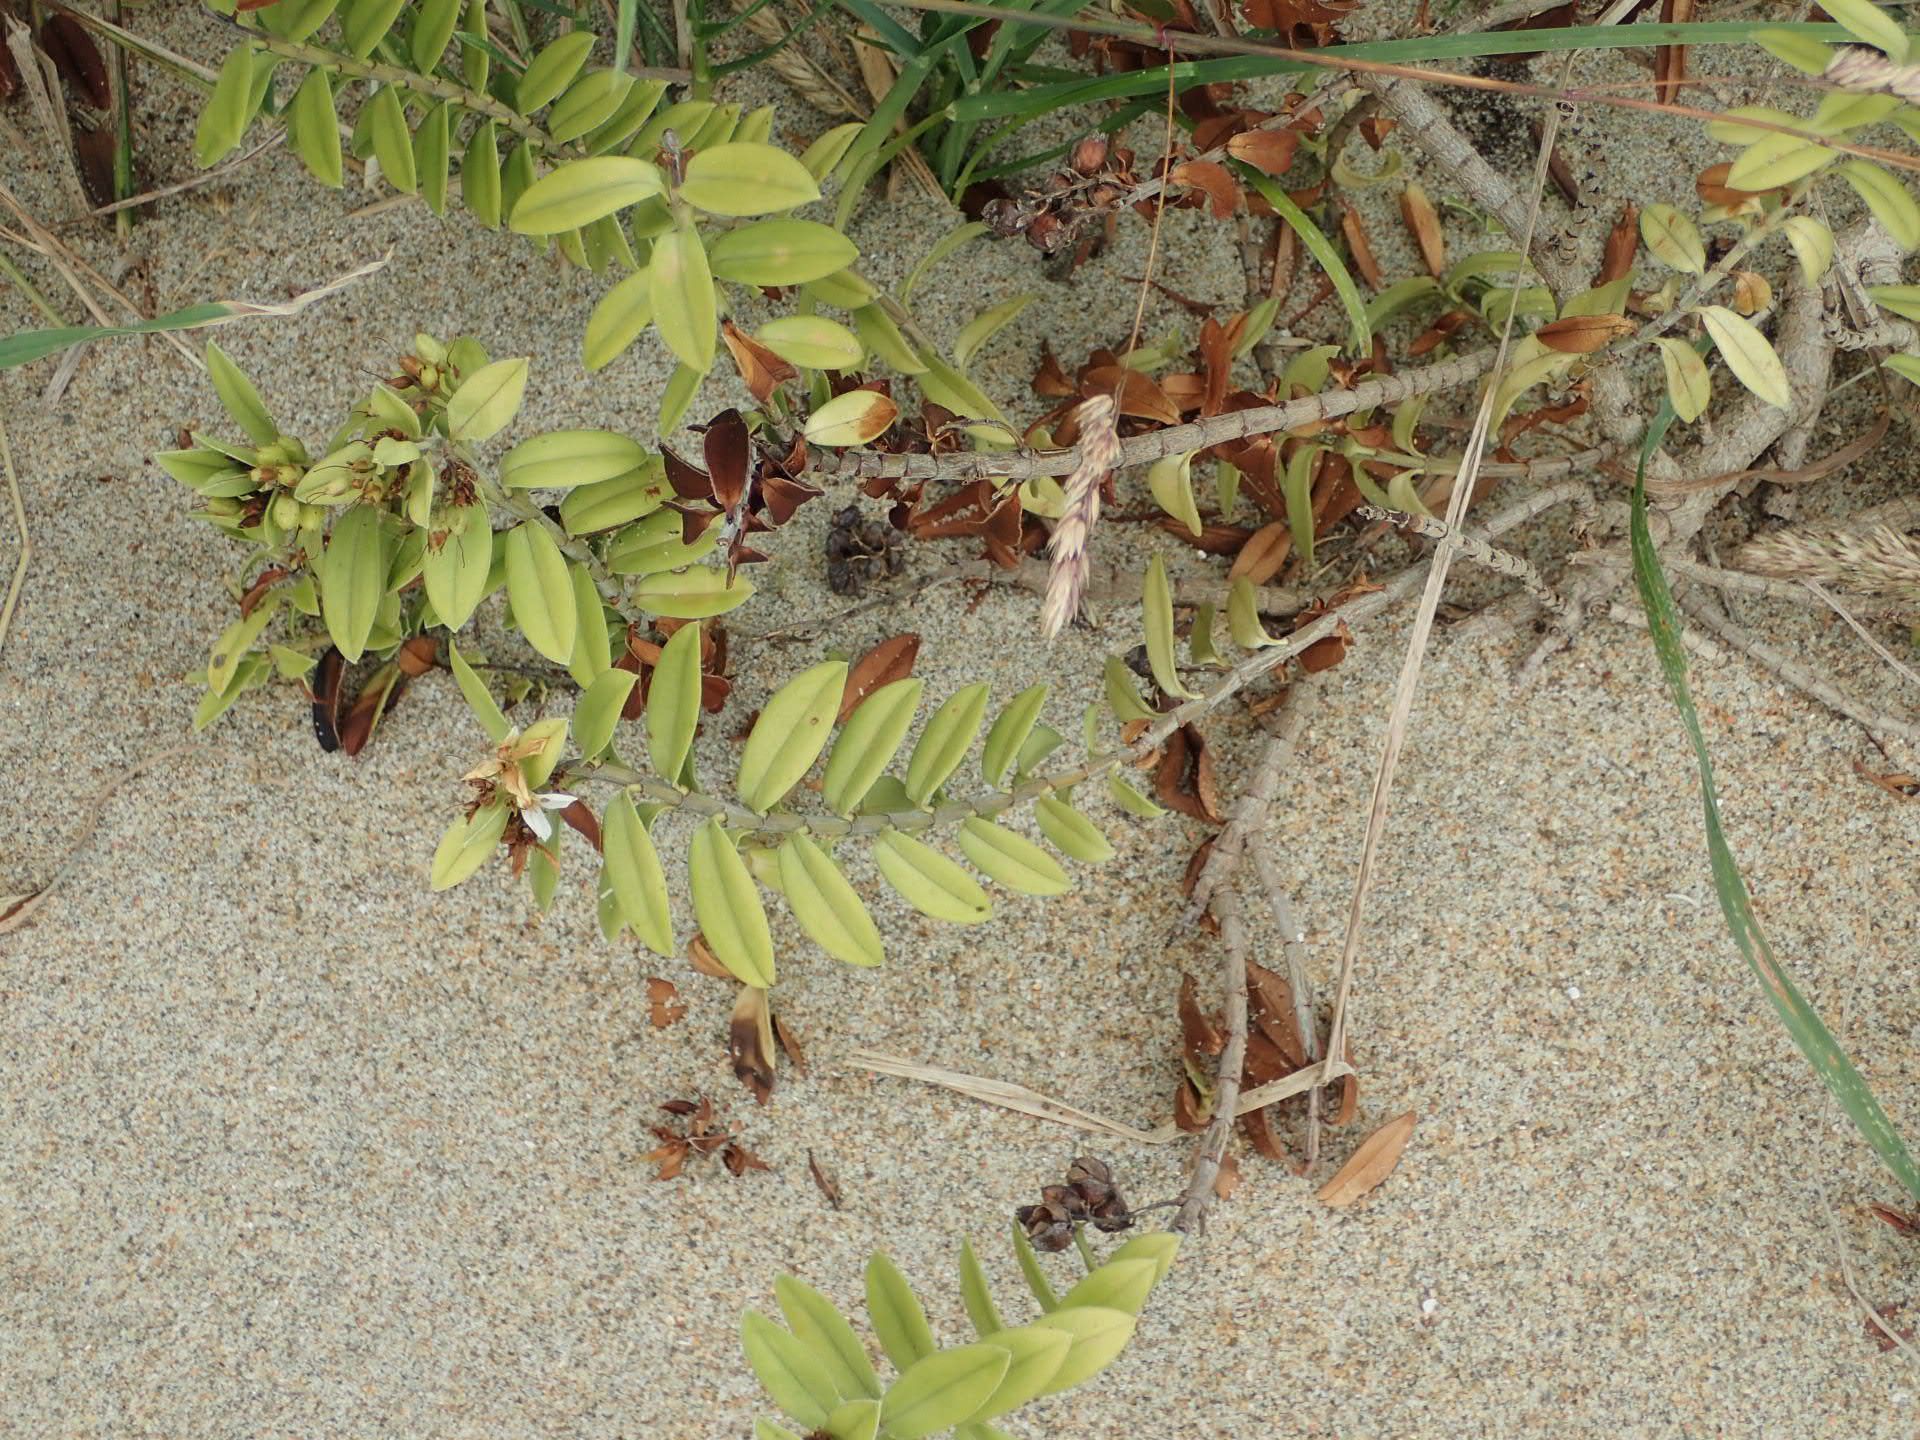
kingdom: Plantae
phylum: Tracheophyta
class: Magnoliopsida
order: Lamiales
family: Plantaginaceae
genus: Veronica
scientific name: Veronica elliptica
